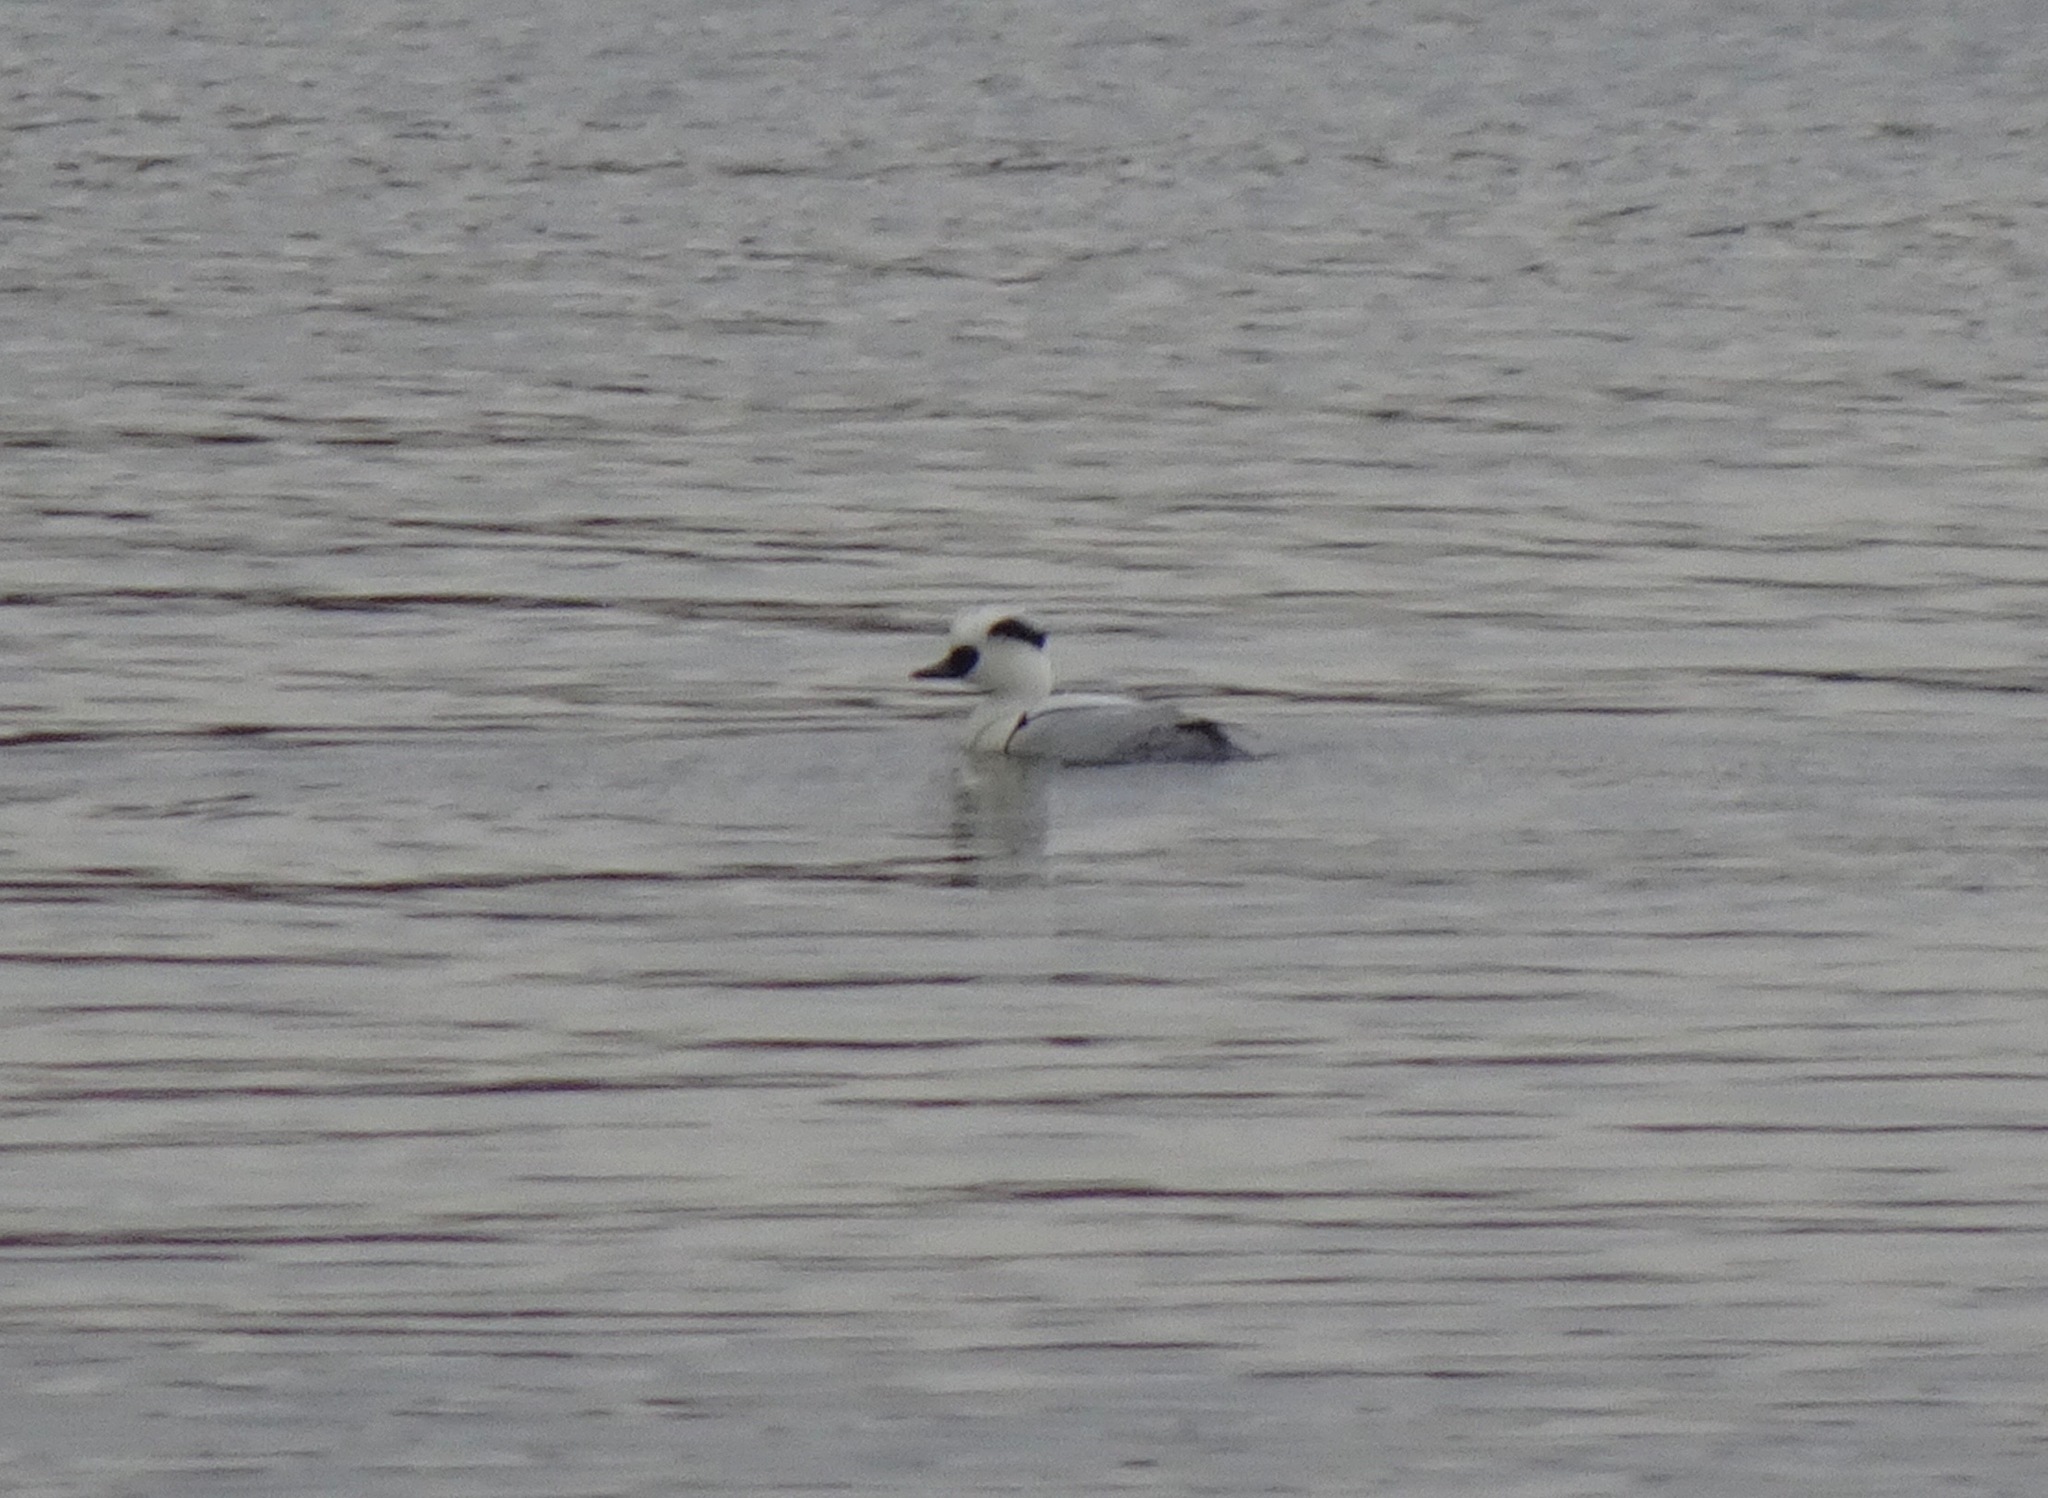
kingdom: Animalia
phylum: Chordata
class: Aves
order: Anseriformes
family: Anatidae
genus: Mergellus
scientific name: Mergellus albellus
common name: Smew
